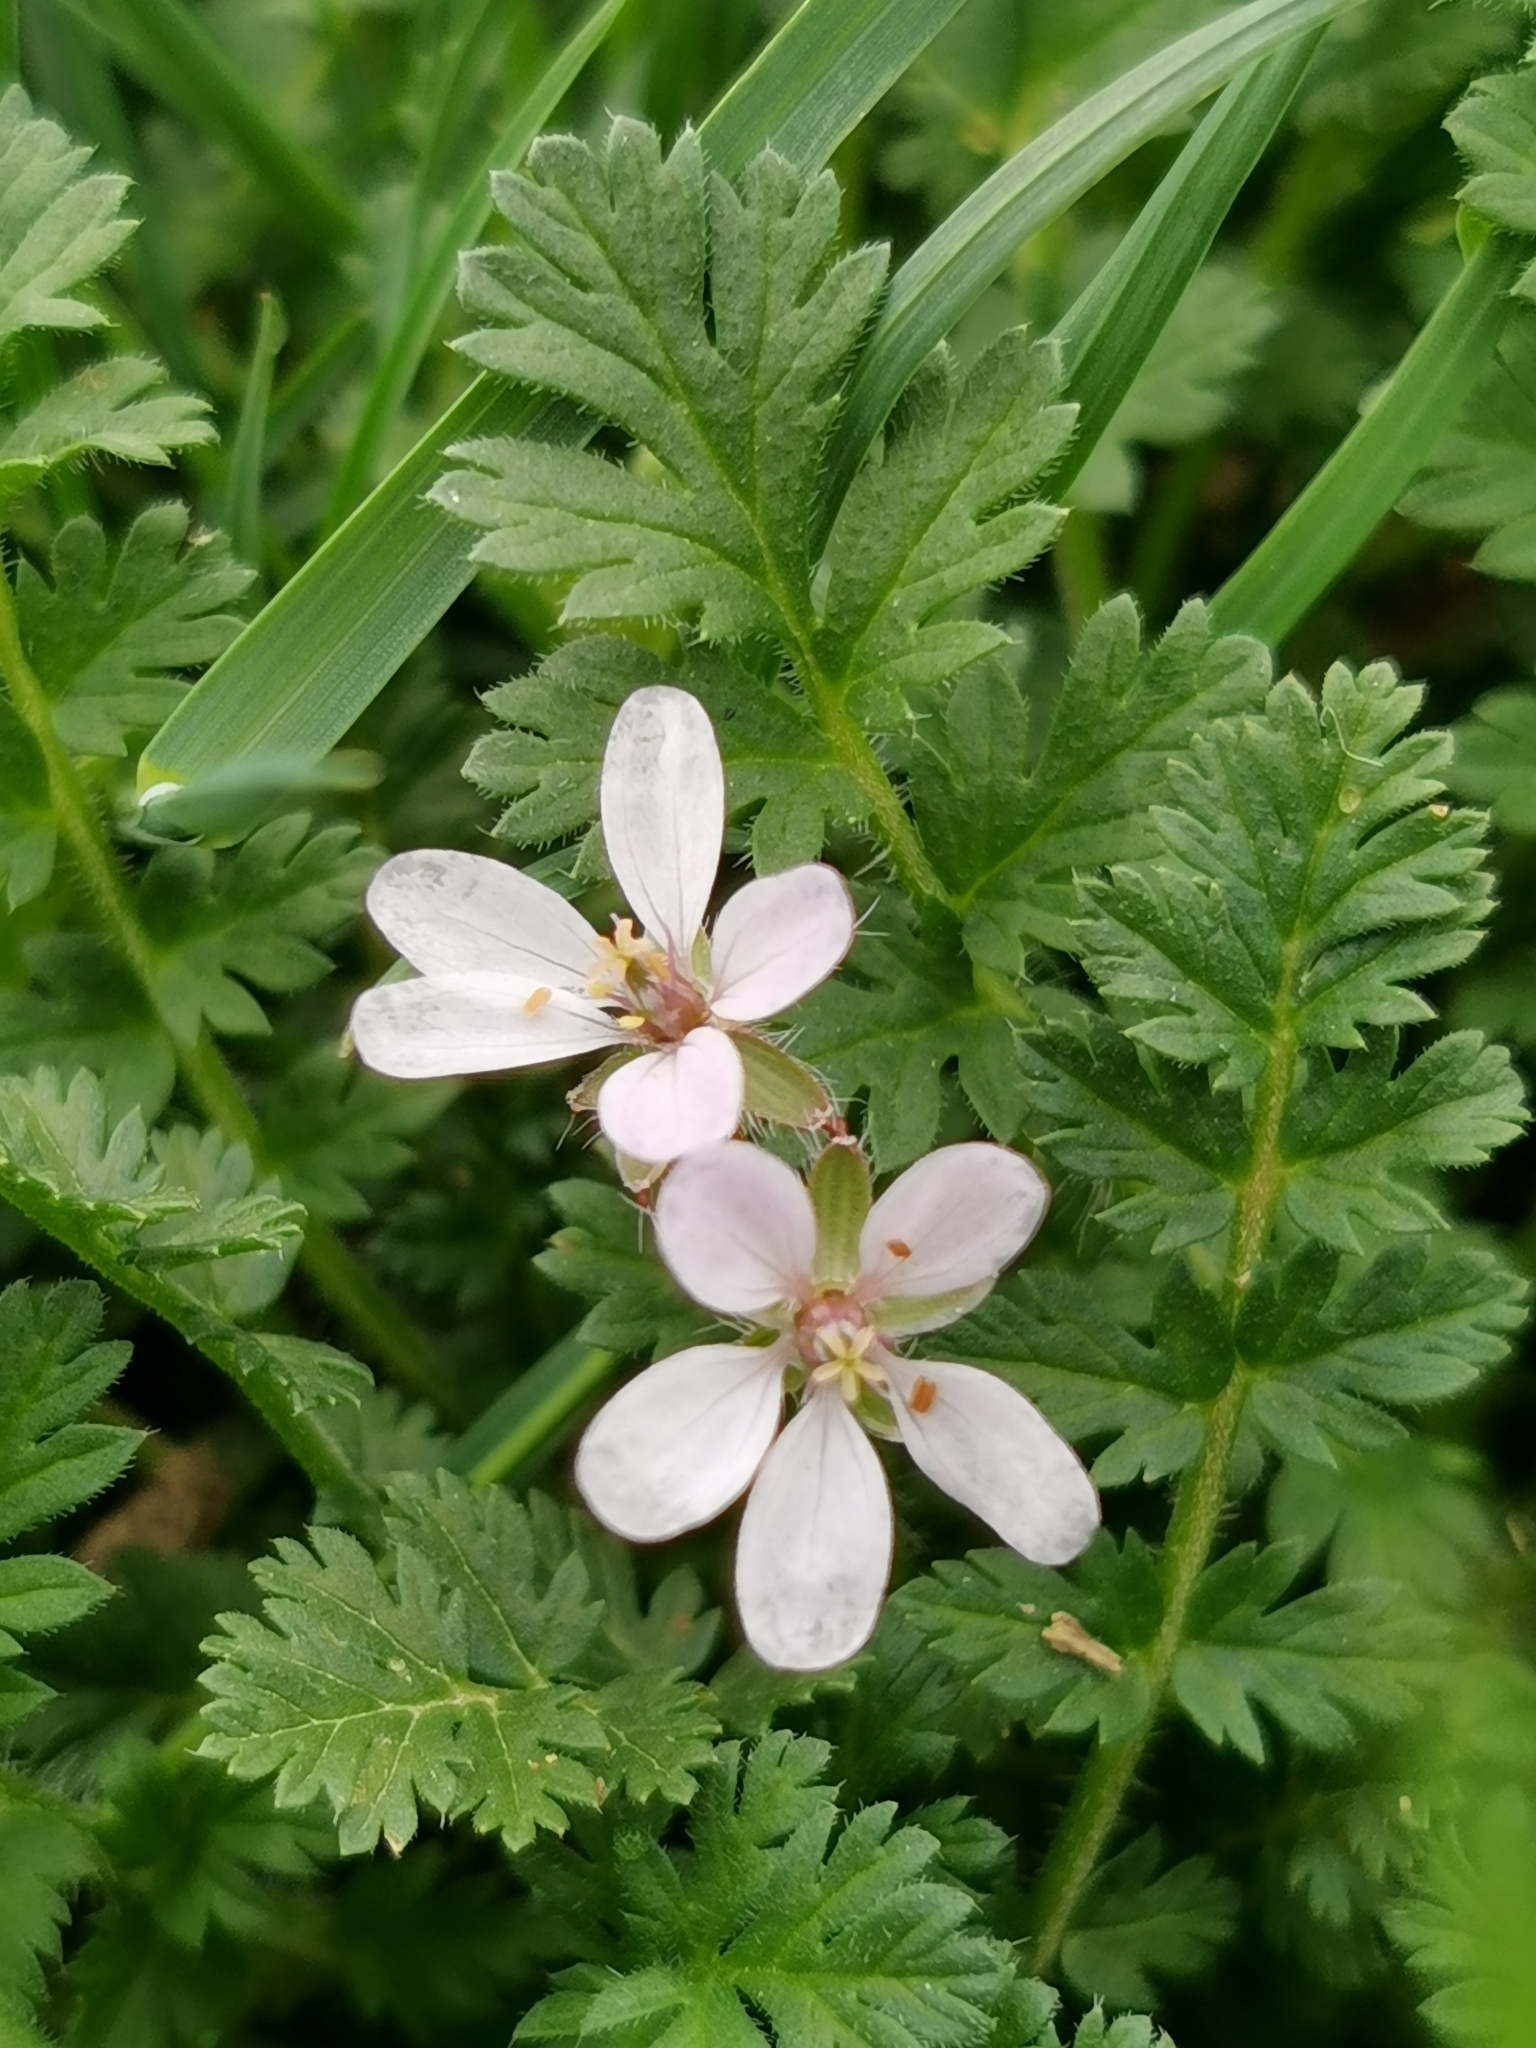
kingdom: Plantae
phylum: Tracheophyta
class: Magnoliopsida
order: Geraniales
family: Geraniaceae
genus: Erodium
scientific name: Erodium cicutarium
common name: Common stork's-bill
